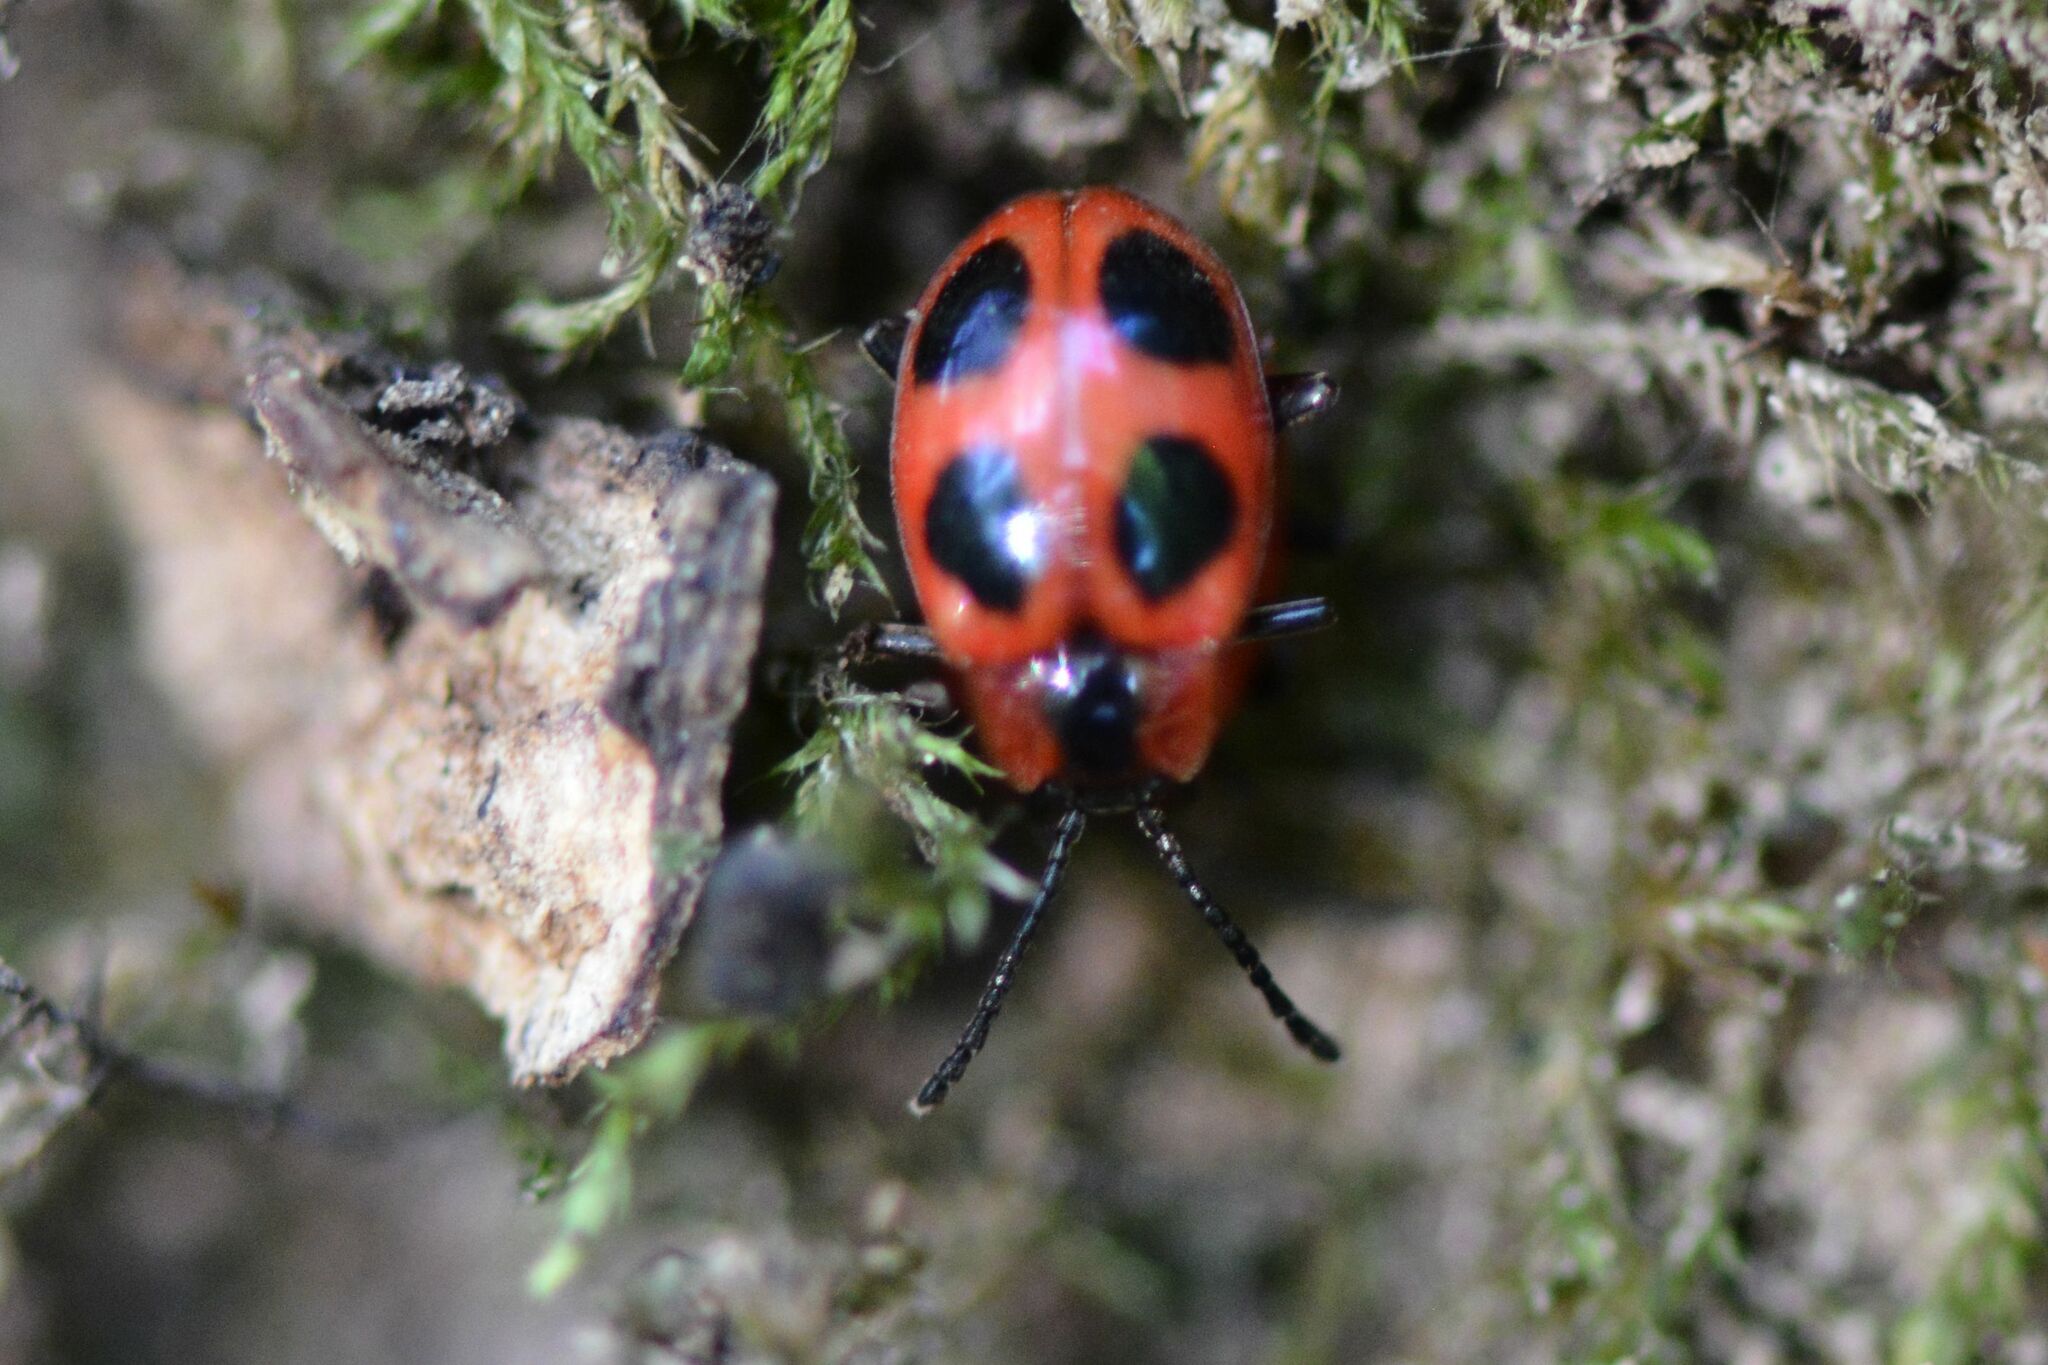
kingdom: Animalia
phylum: Arthropoda
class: Insecta
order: Coleoptera
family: Endomychidae
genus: Endomychus
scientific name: Endomychus coccineus
